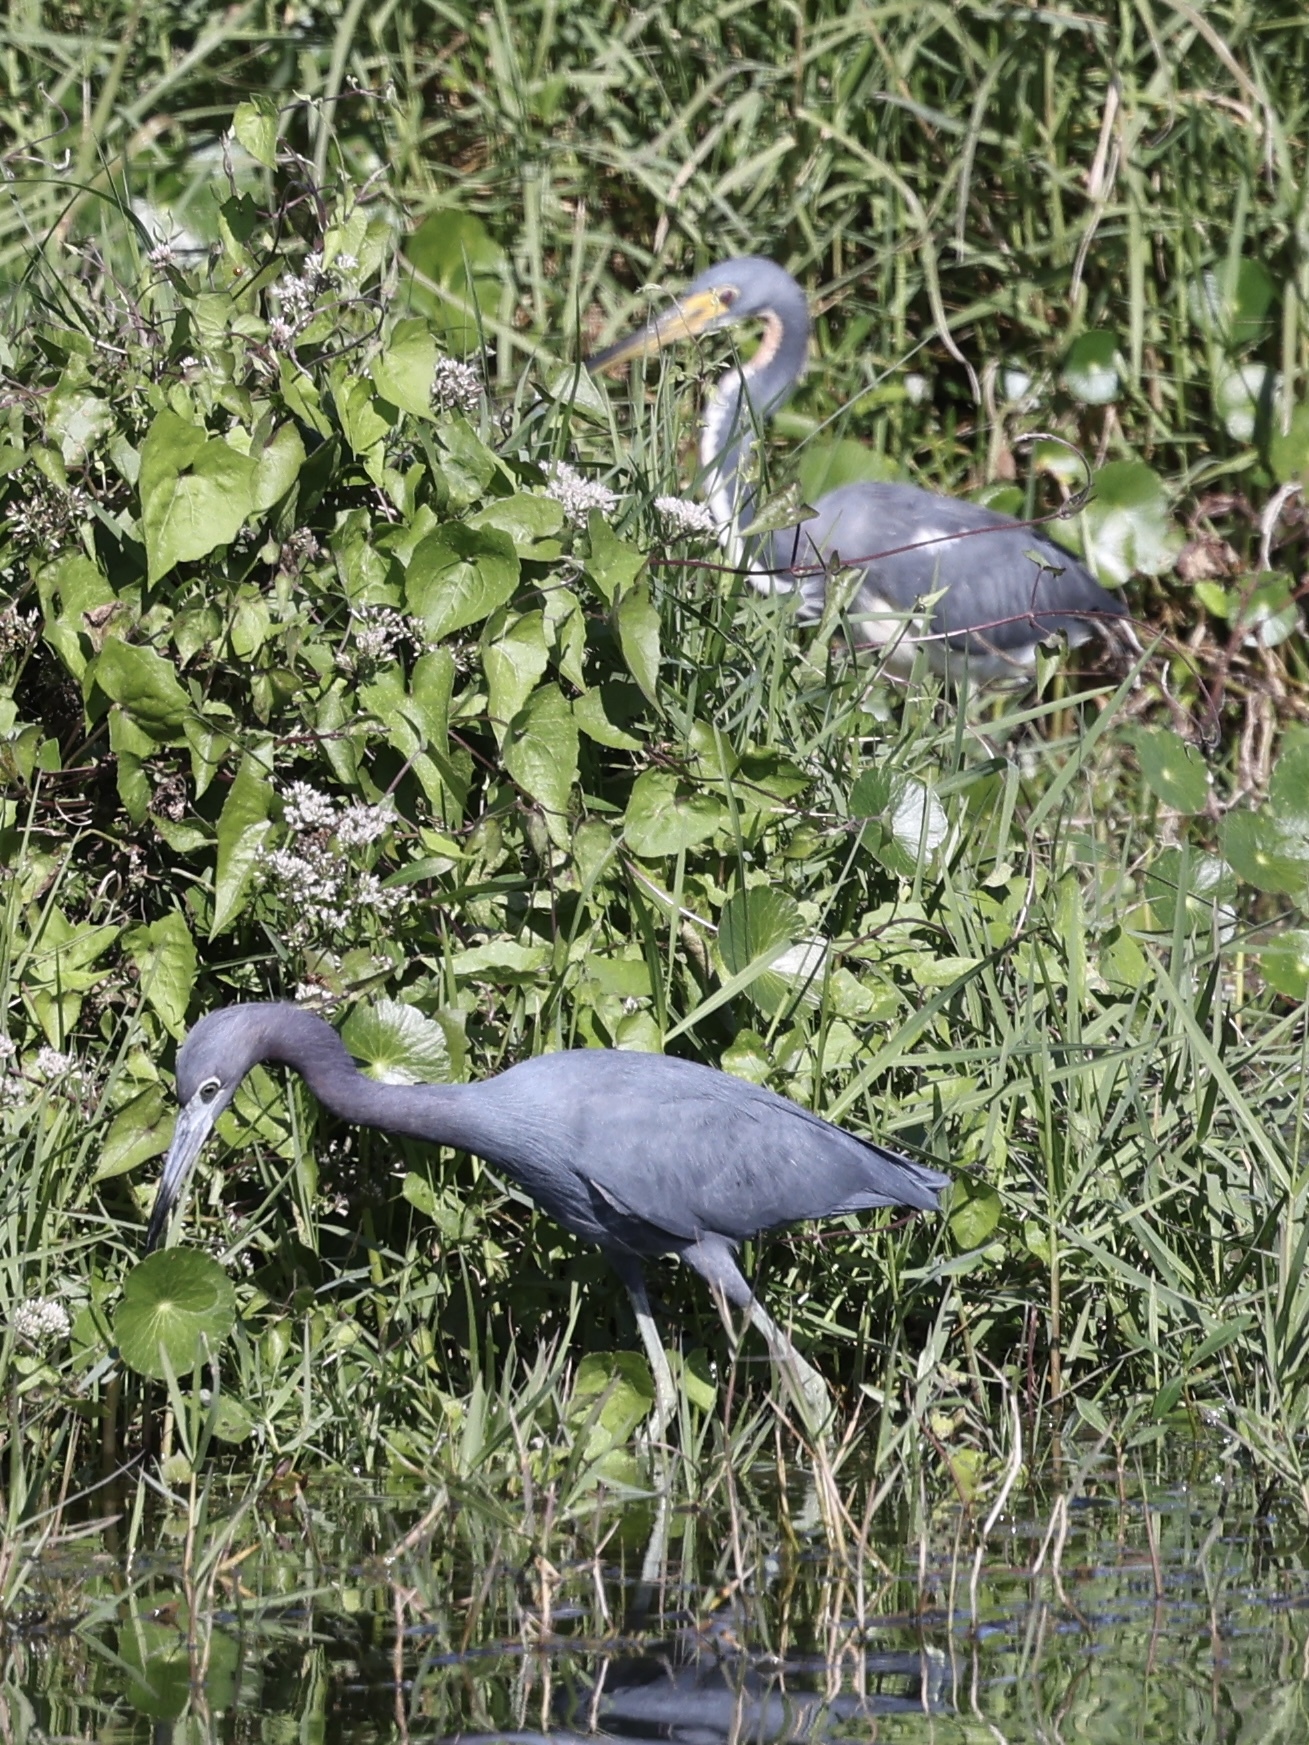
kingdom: Animalia
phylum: Chordata
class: Aves
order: Pelecaniformes
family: Ardeidae
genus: Egretta
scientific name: Egretta caerulea
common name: Little blue heron
